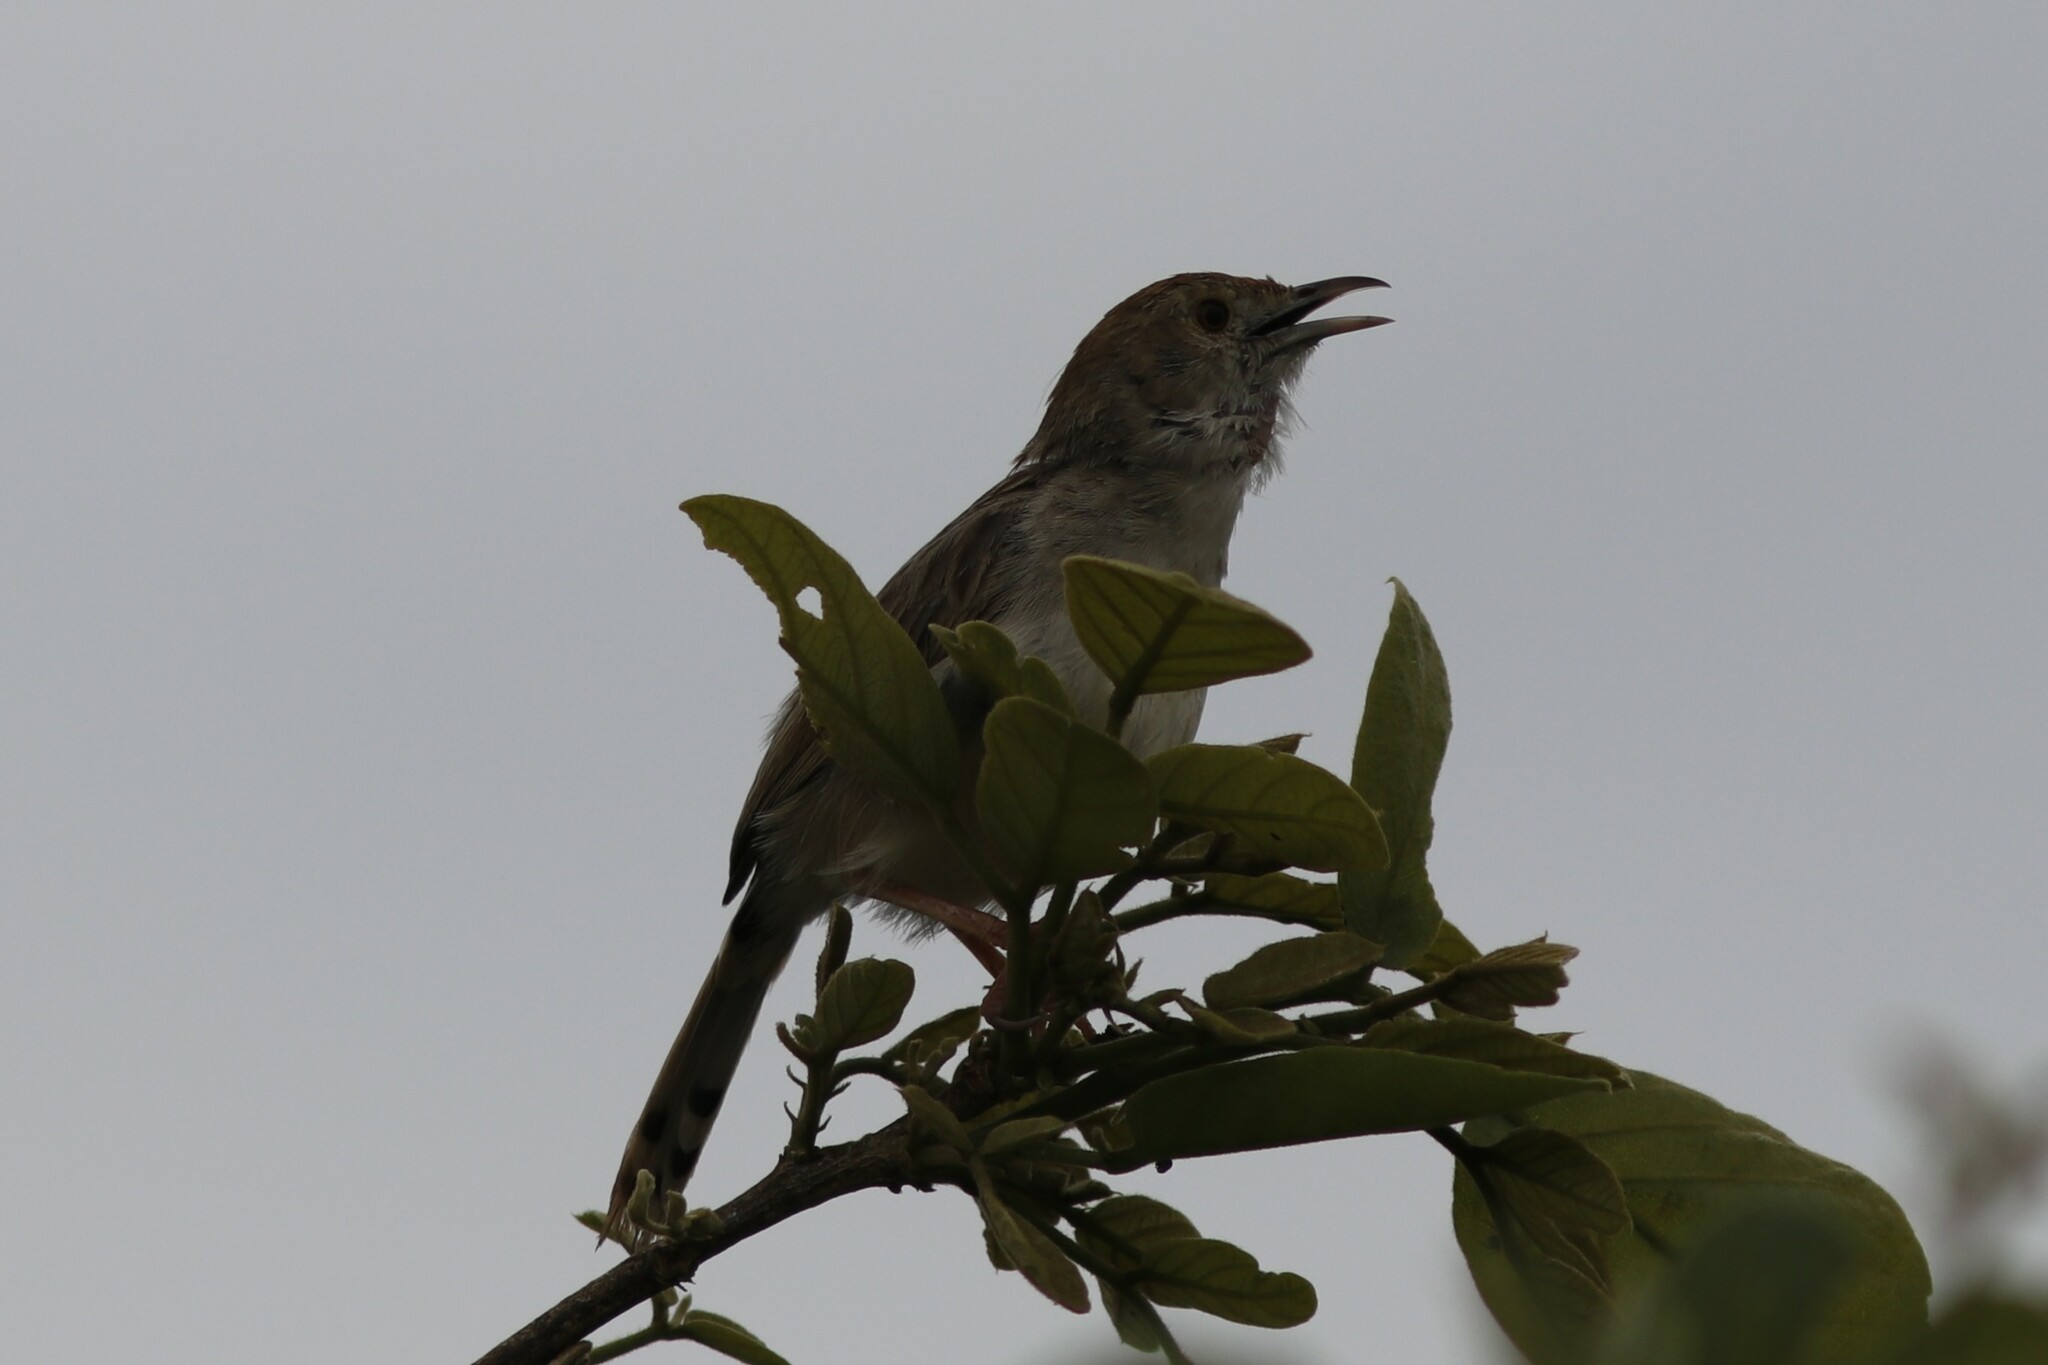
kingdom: Animalia
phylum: Chordata
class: Aves
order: Passeriformes
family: Cisticolidae
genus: Cisticola
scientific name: Cisticola chiniana
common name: Rattling cisticola
